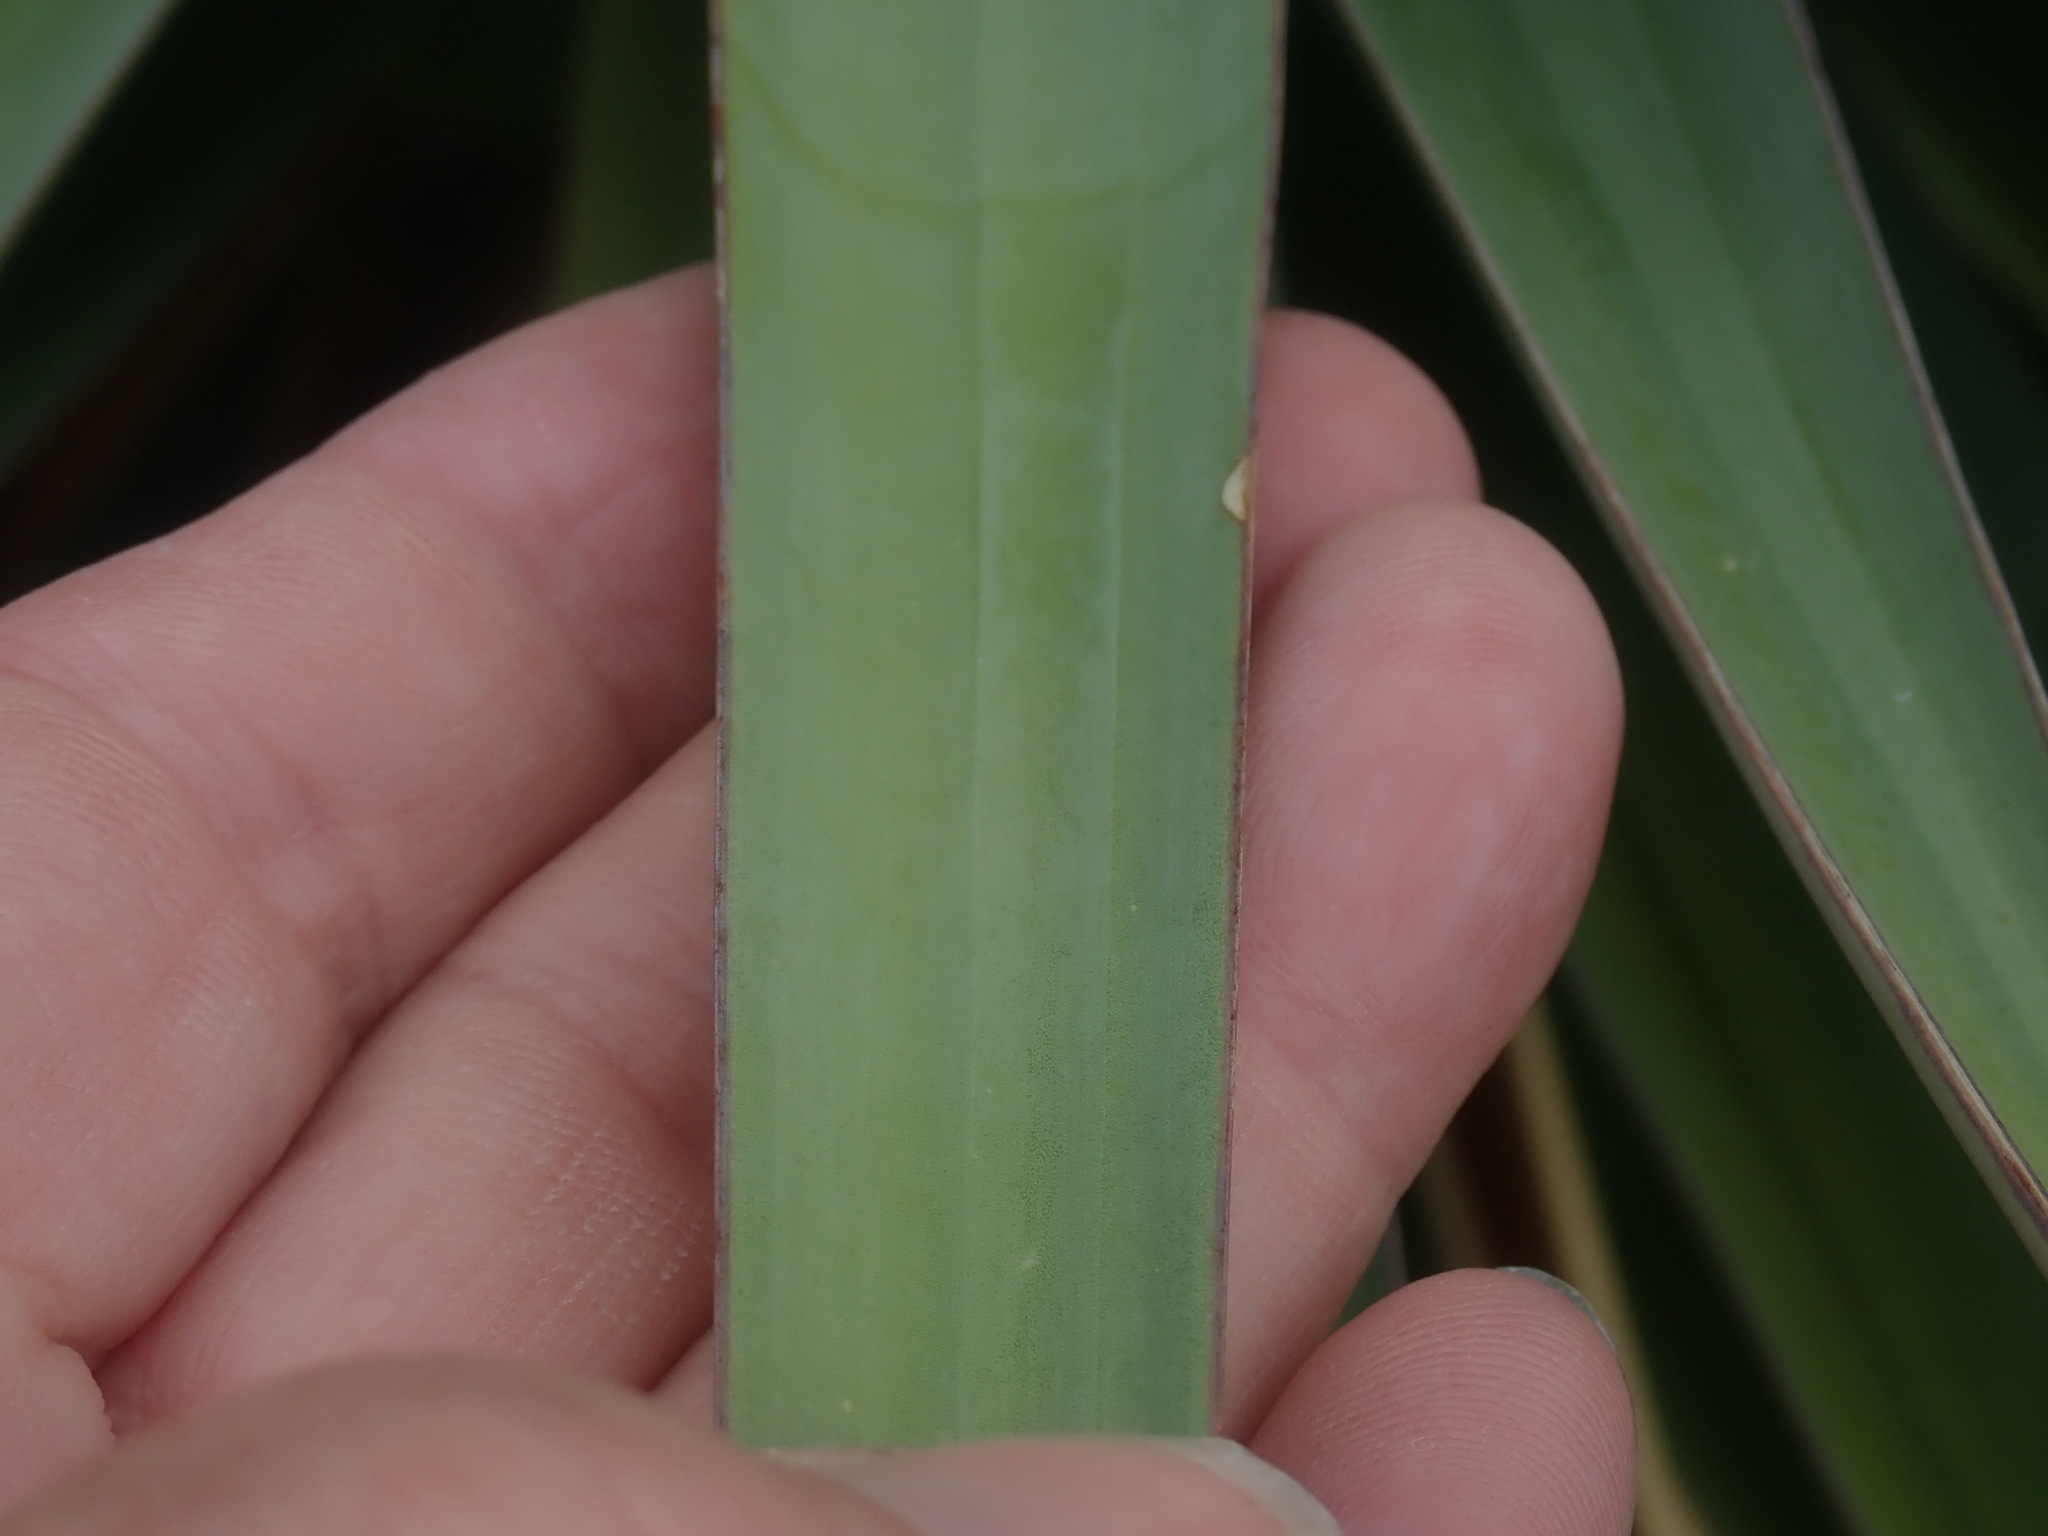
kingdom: Plantae
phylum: Tracheophyta
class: Liliopsida
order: Asparagales
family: Asparagaceae
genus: Yucca
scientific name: Yucca schottii
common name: Hoary yucca
